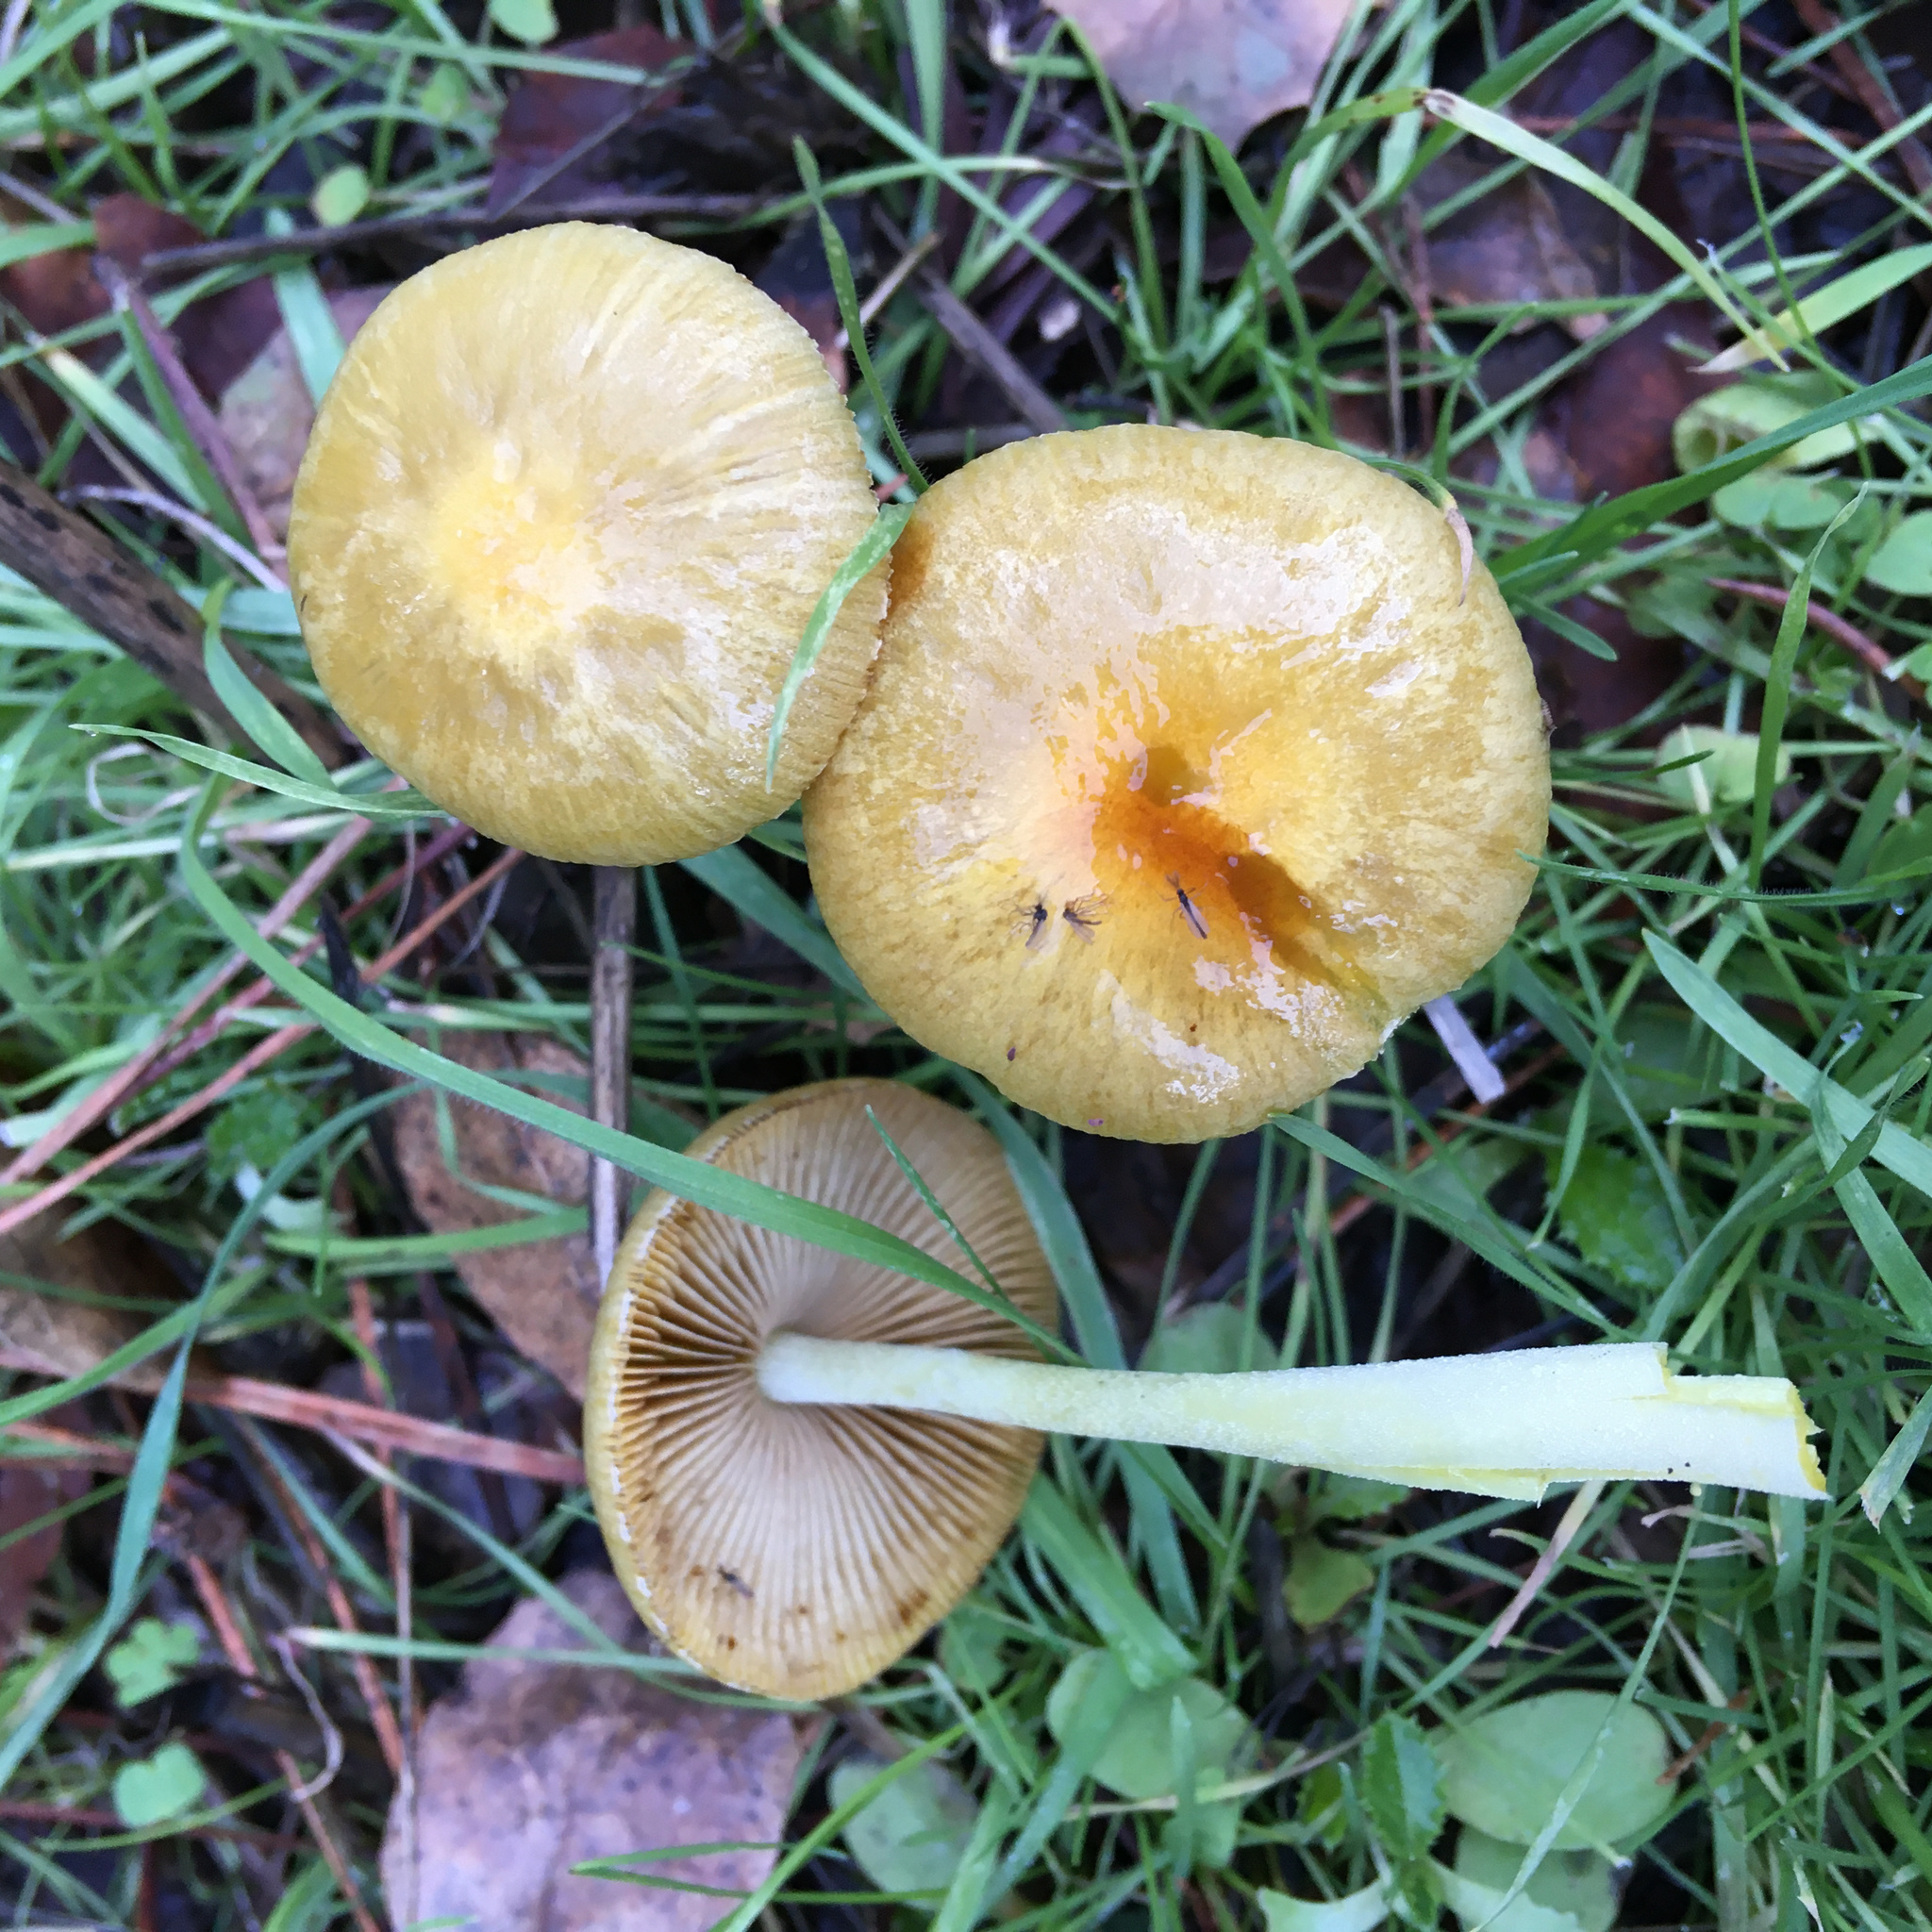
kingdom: Fungi
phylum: Basidiomycota
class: Agaricomycetes
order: Agaricales
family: Bolbitiaceae
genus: Bolbitius
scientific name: Bolbitius titubans
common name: Yellow fieldcap
